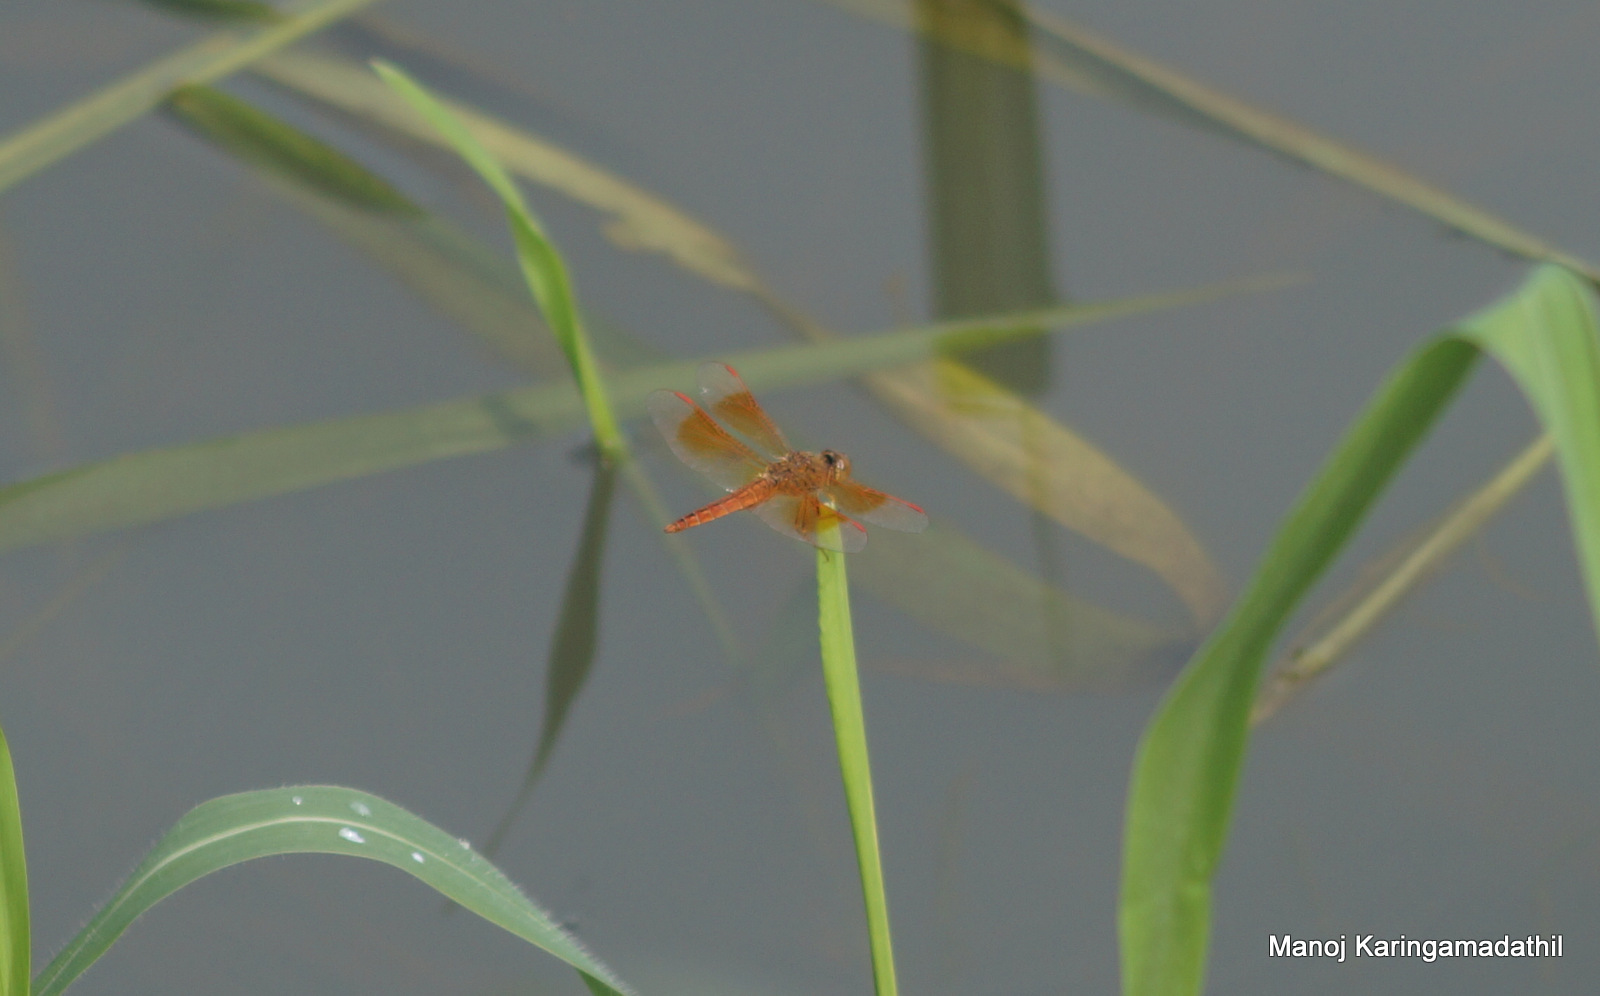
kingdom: Animalia
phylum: Arthropoda
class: Insecta
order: Odonata
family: Libellulidae
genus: Brachythemis
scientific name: Brachythemis contaminata
